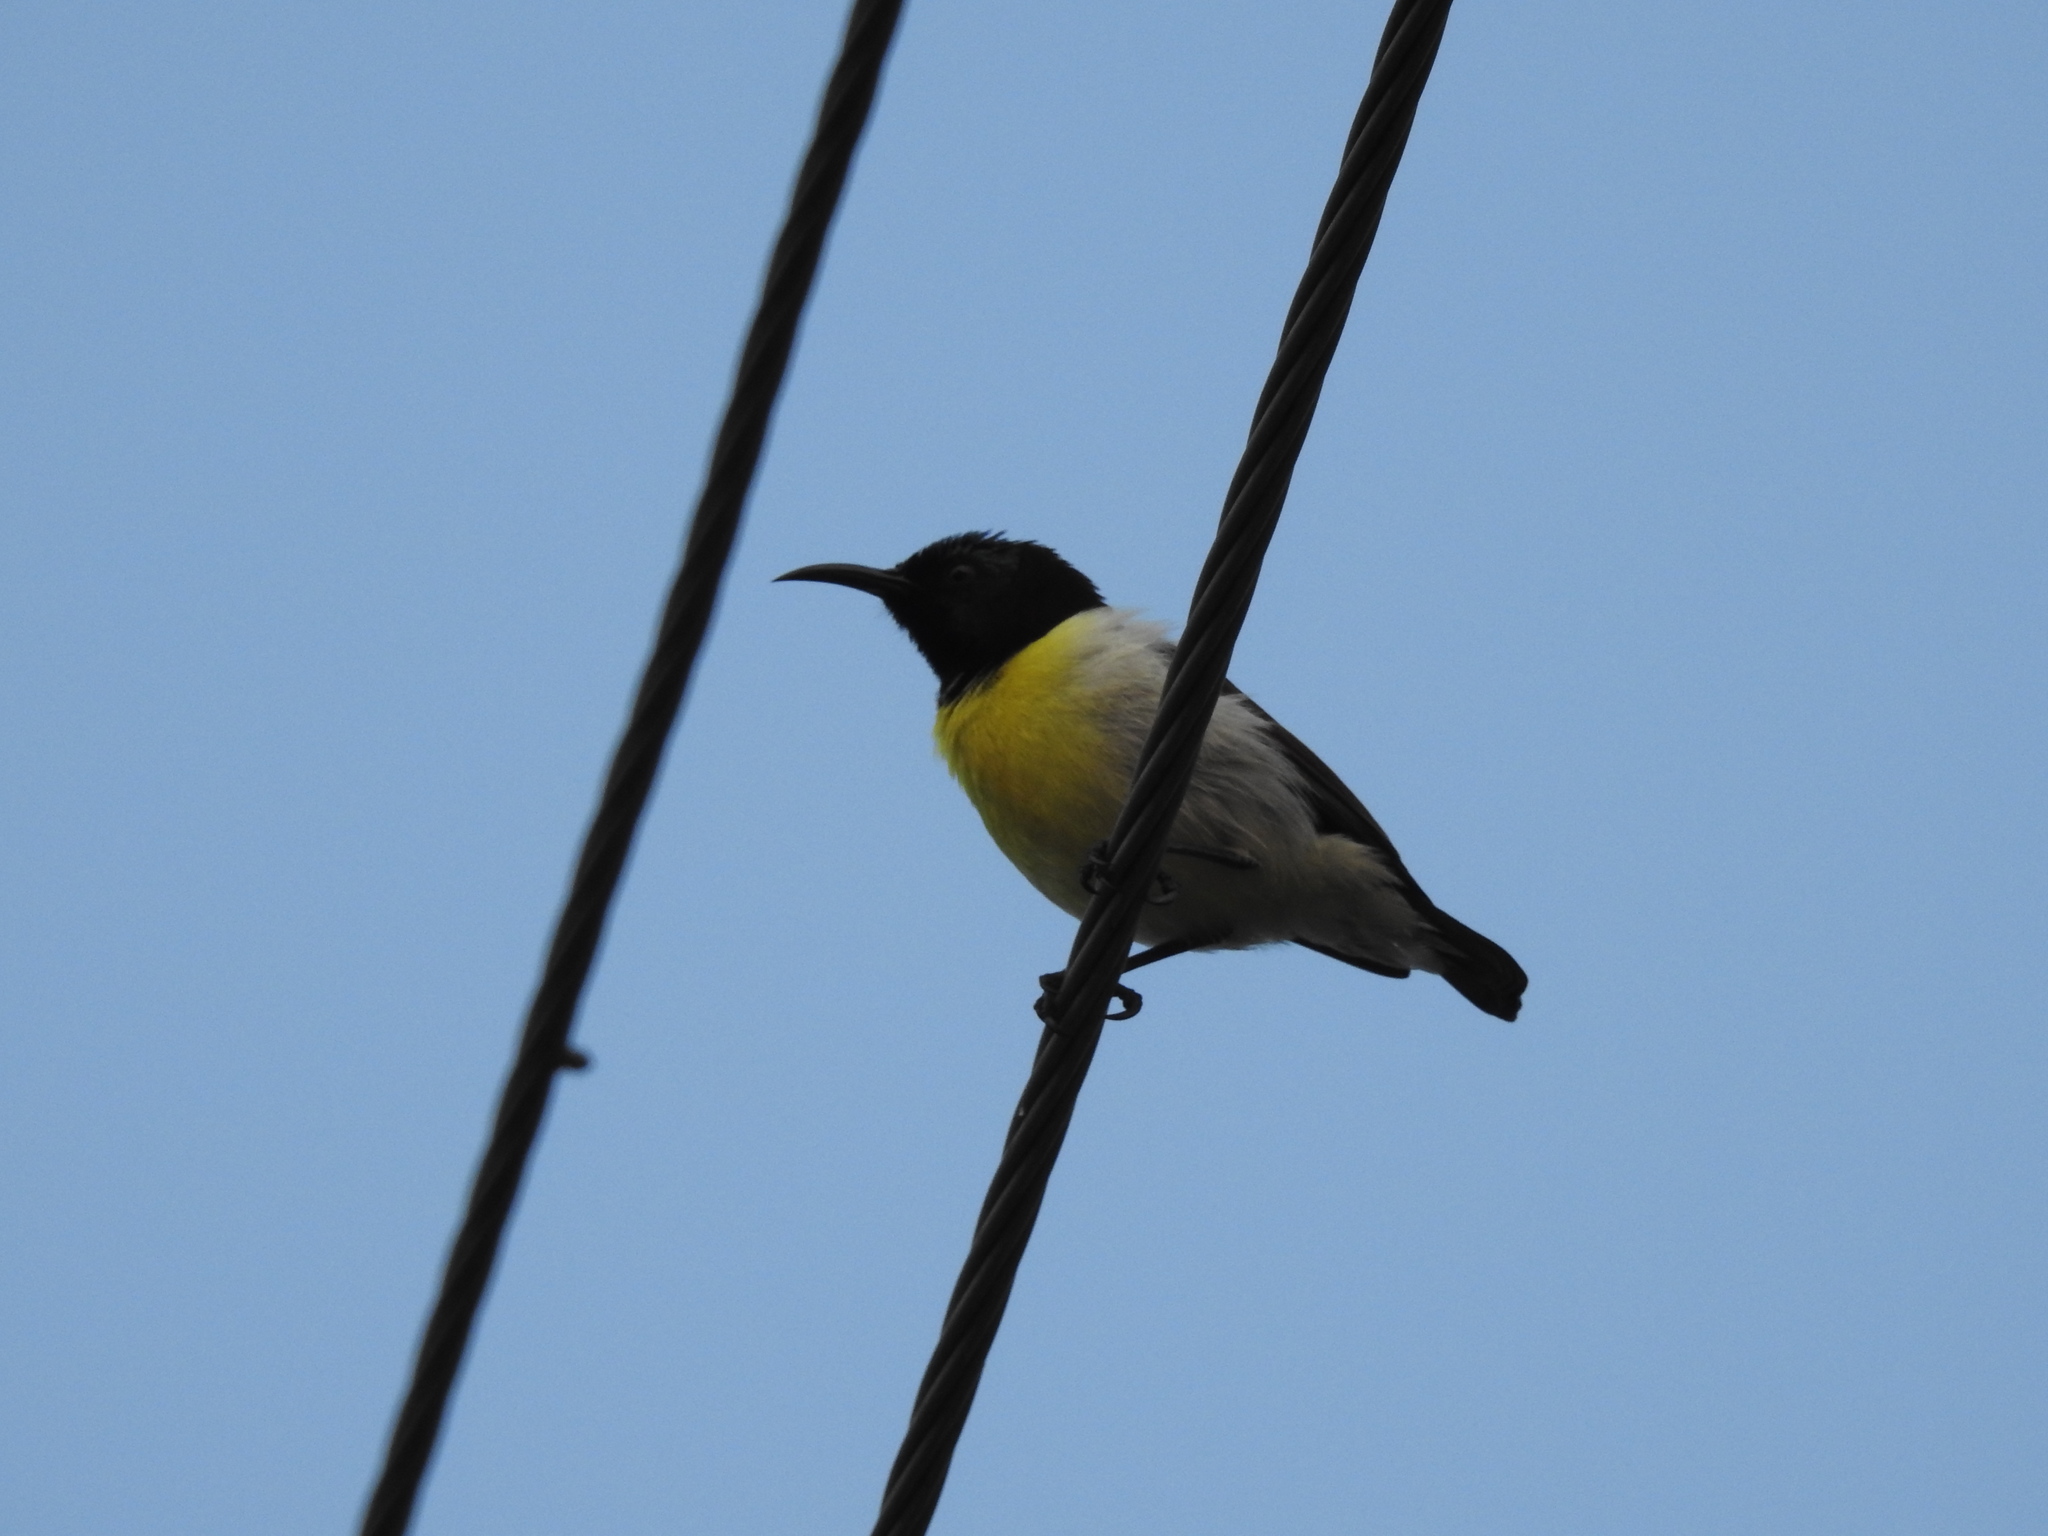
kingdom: Animalia
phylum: Chordata
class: Aves
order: Passeriformes
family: Nectariniidae
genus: Leptocoma
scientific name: Leptocoma zeylonica
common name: Purple-rumped sunbird
